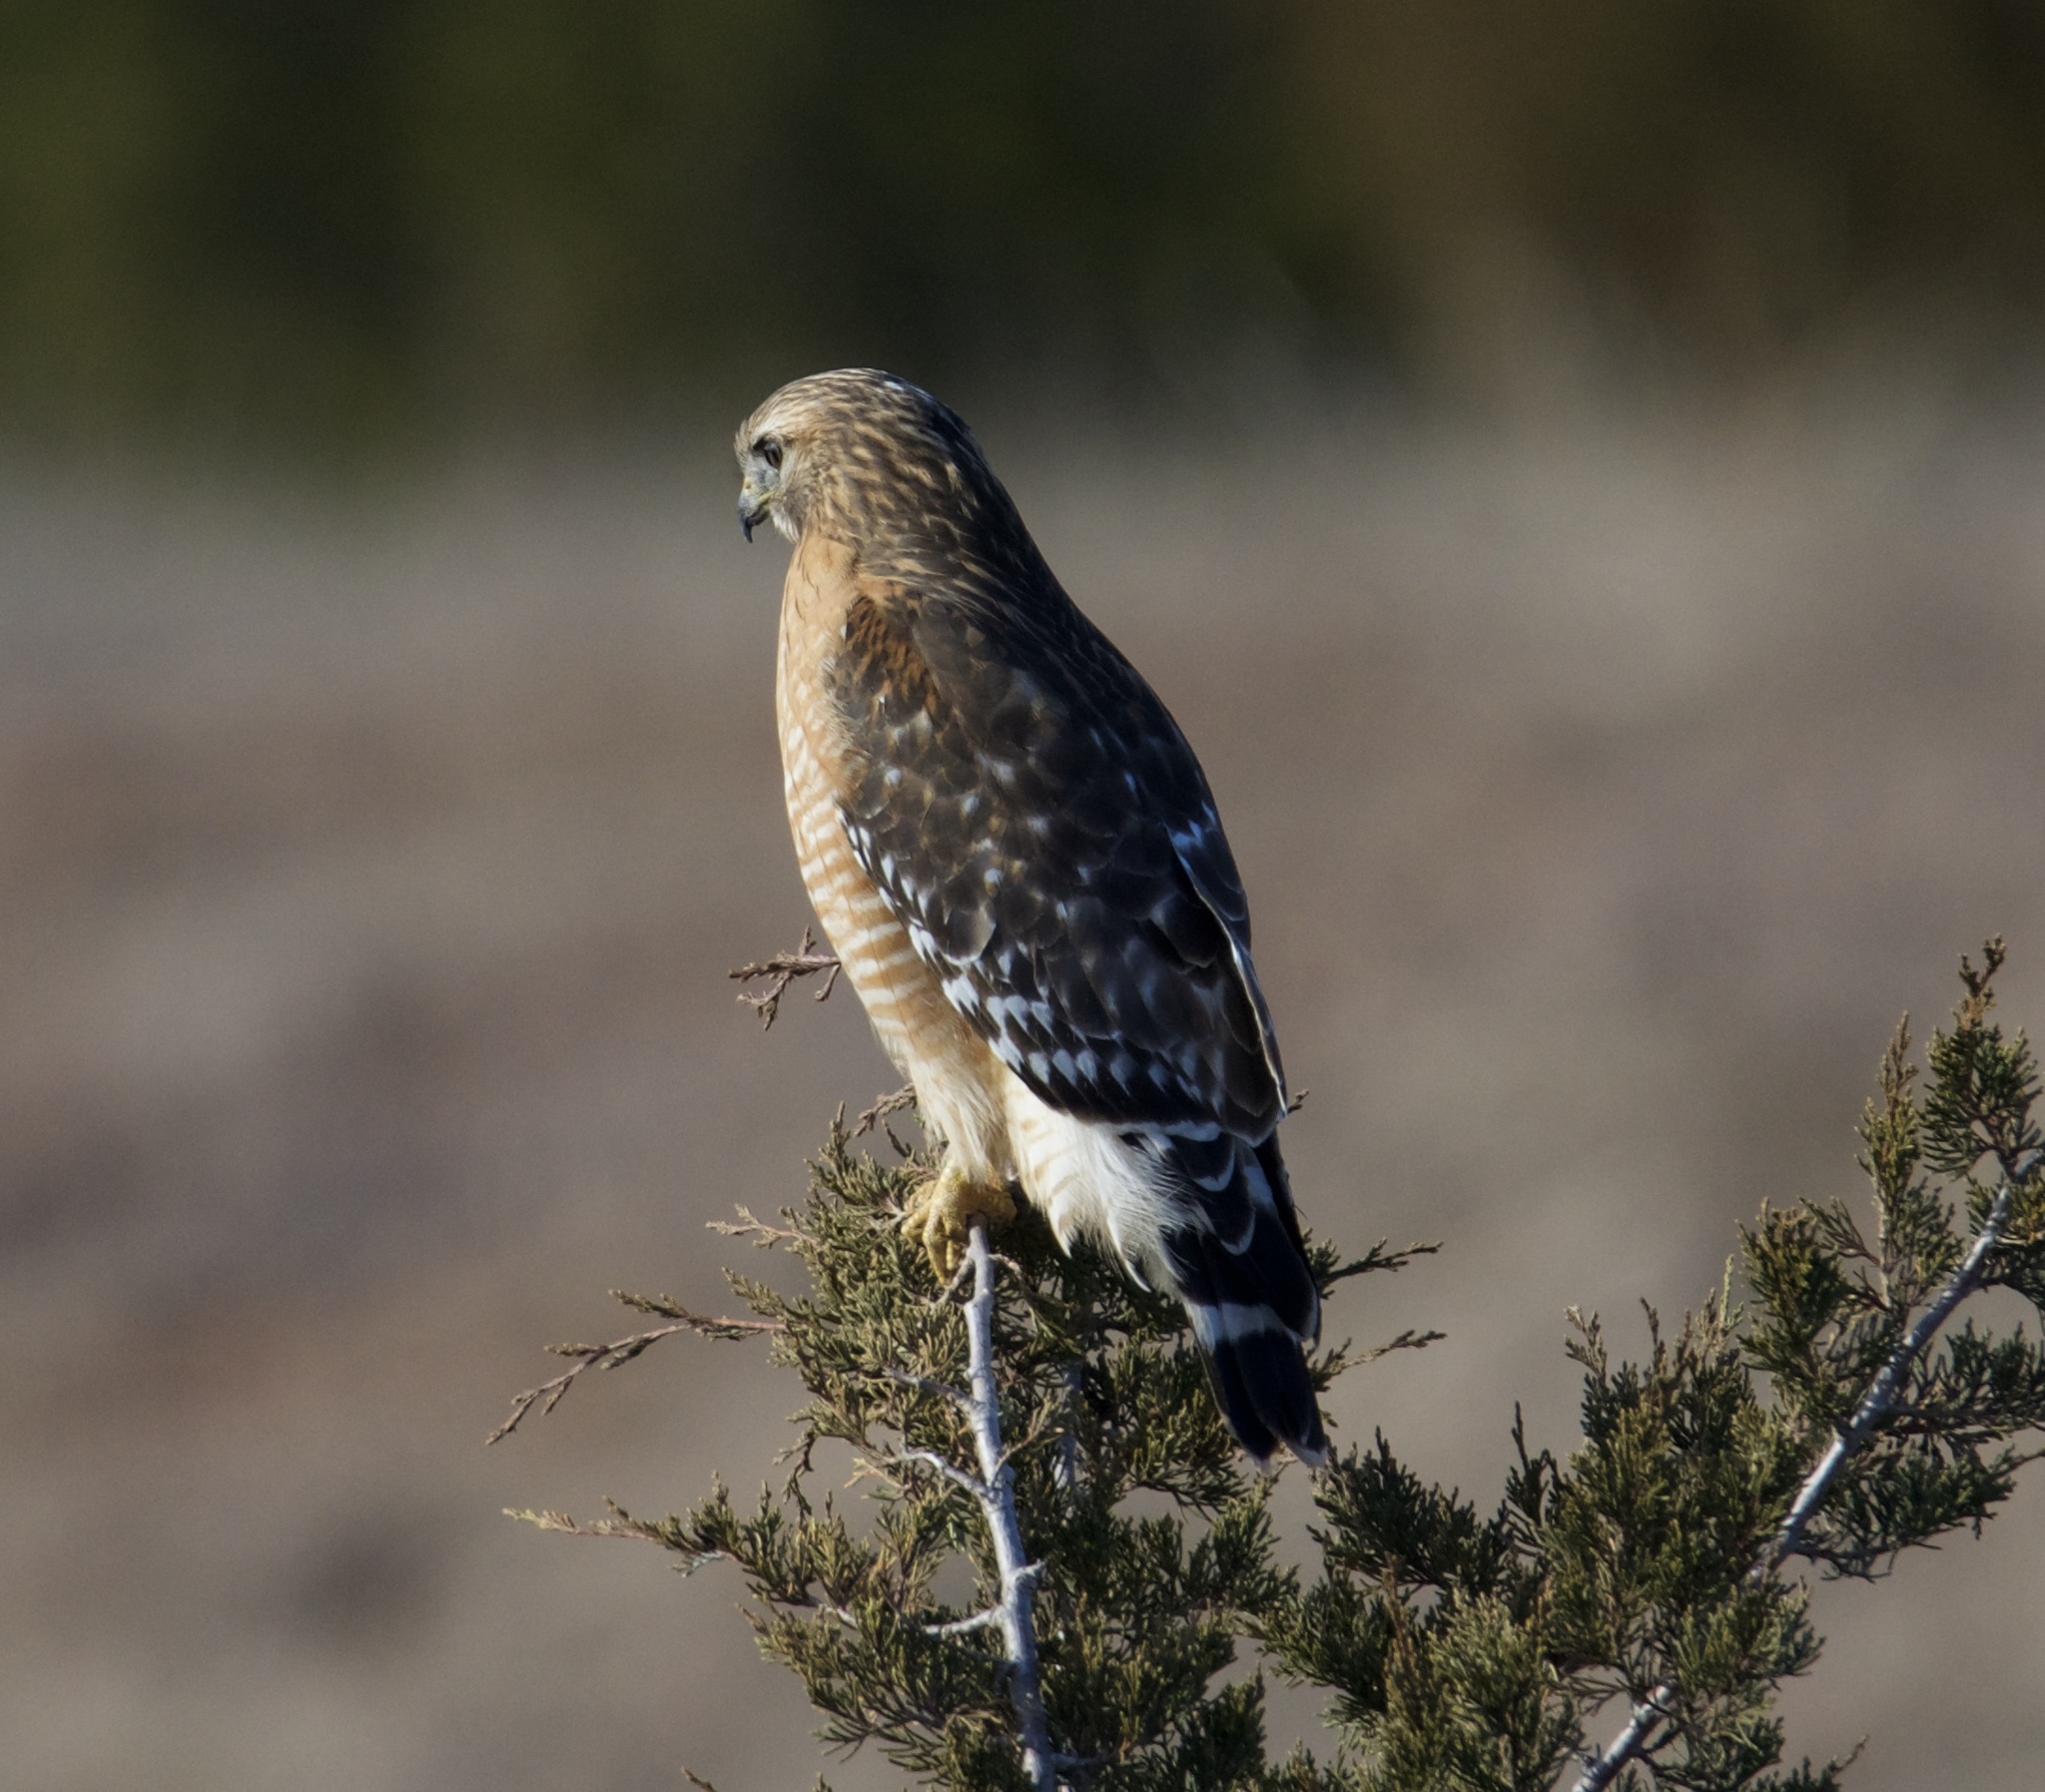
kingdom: Animalia
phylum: Chordata
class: Aves
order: Accipitriformes
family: Accipitridae
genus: Buteo
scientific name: Buteo lineatus
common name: Red-shouldered hawk
